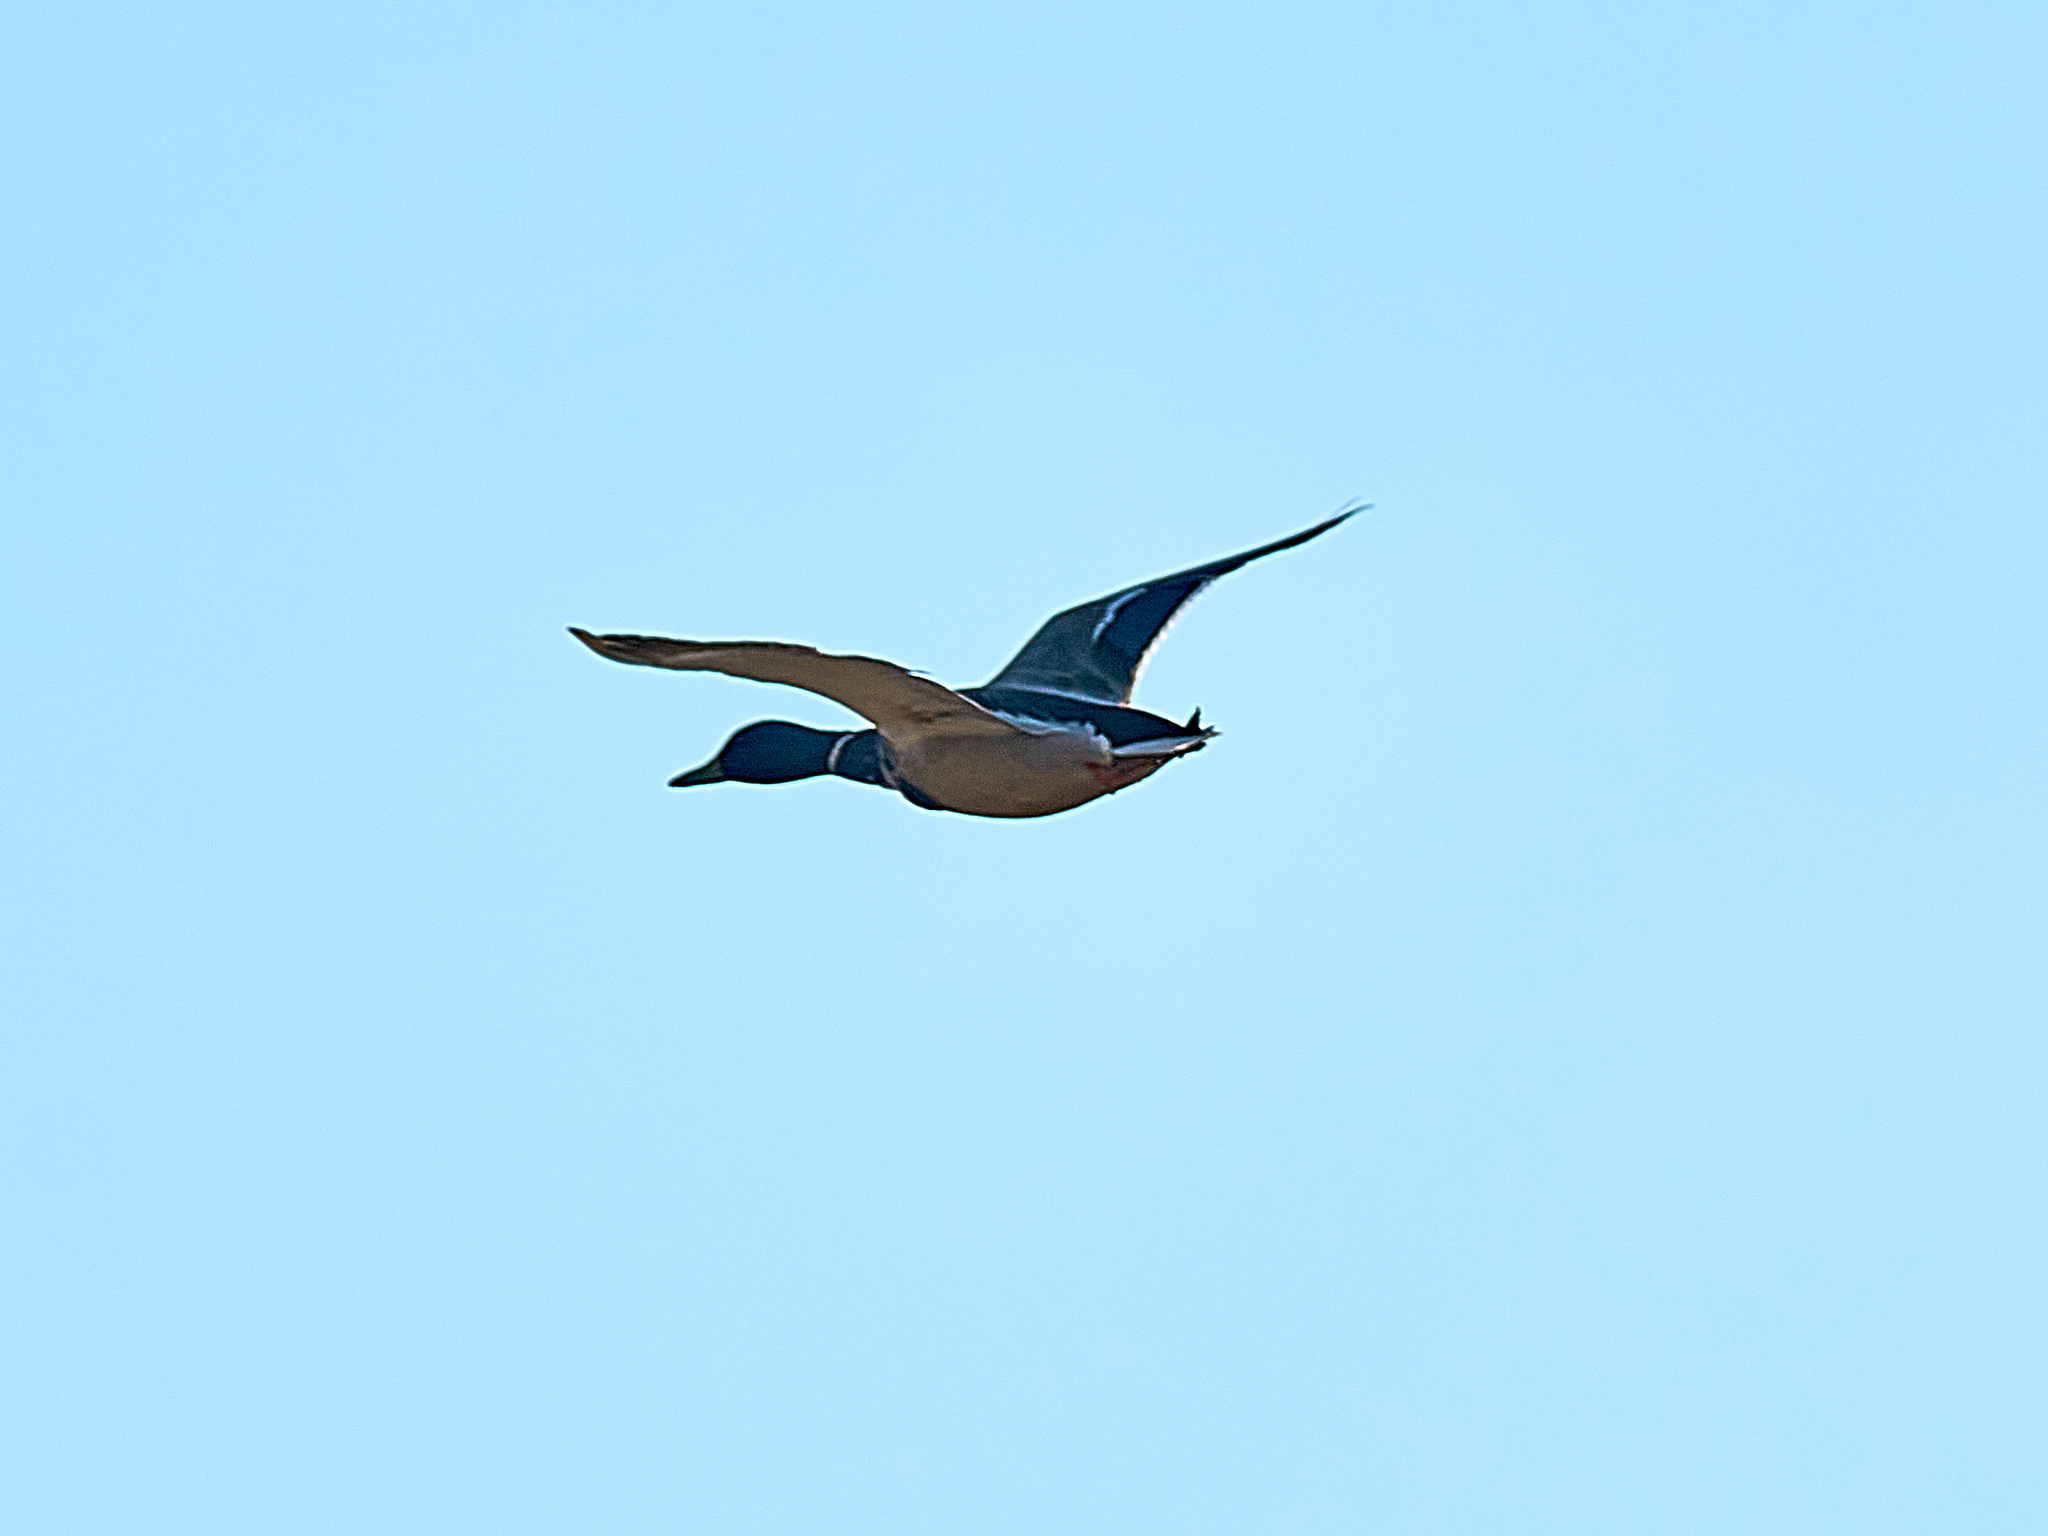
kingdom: Animalia
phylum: Chordata
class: Aves
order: Anseriformes
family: Anatidae
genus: Anas
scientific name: Anas platyrhynchos
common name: Mallard
